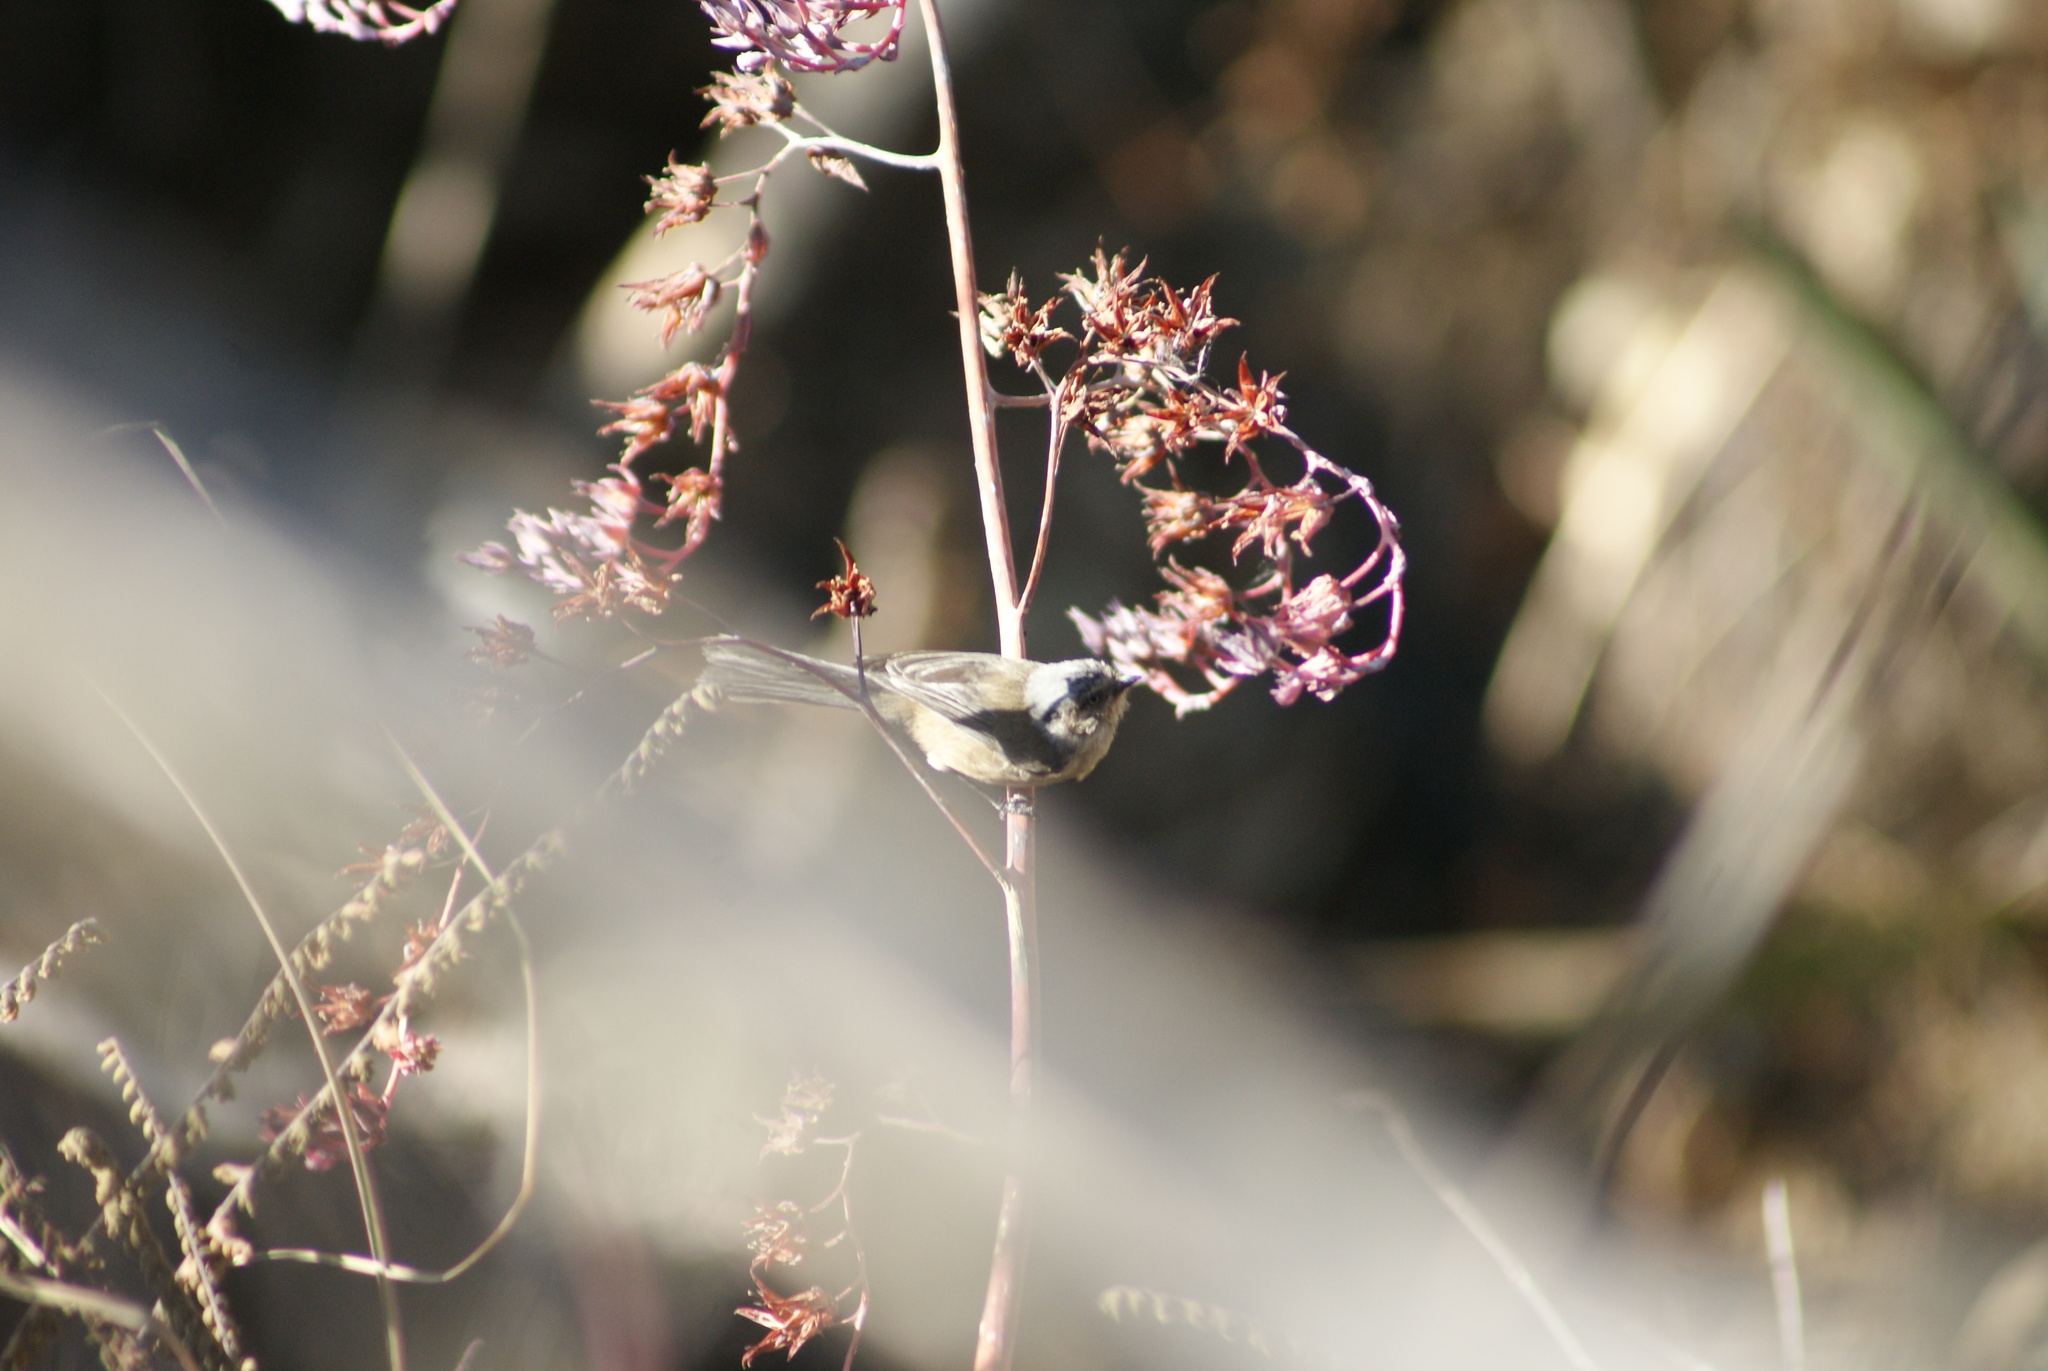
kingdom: Animalia
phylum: Chordata
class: Aves
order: Passeriformes
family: Aegithalidae
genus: Psaltriparus
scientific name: Psaltriparus minimus
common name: American bushtit
